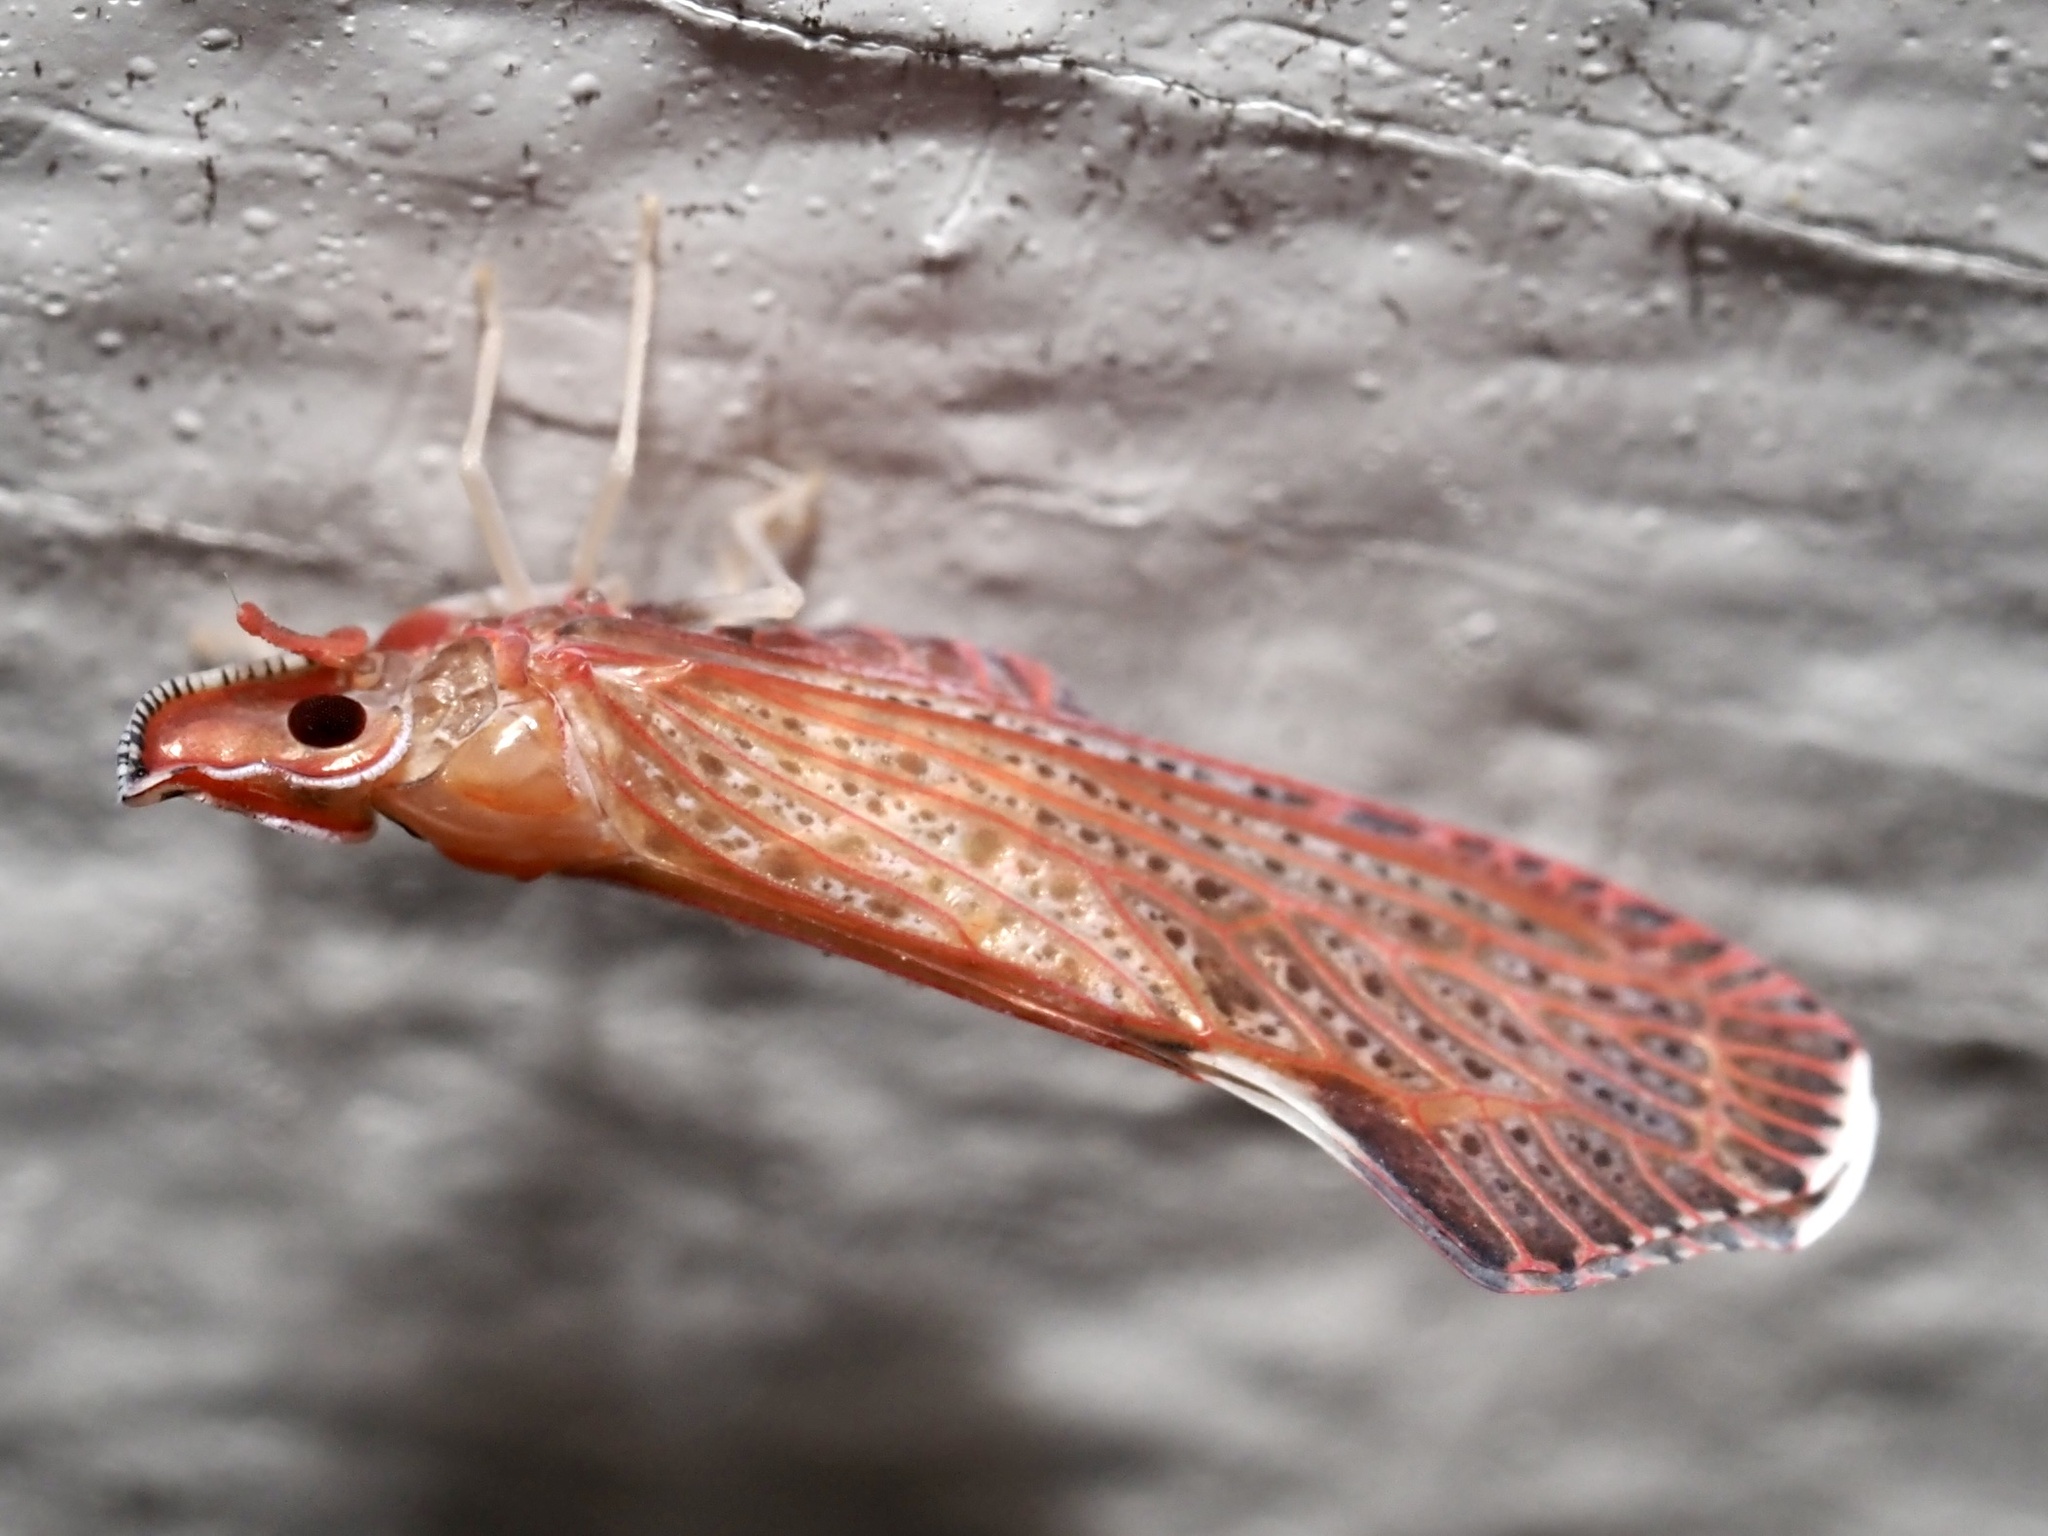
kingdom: Animalia
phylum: Arthropoda
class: Insecta
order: Hemiptera
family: Derbidae
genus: Apache
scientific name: Apache degeeri
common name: Red-fanned planthopper
